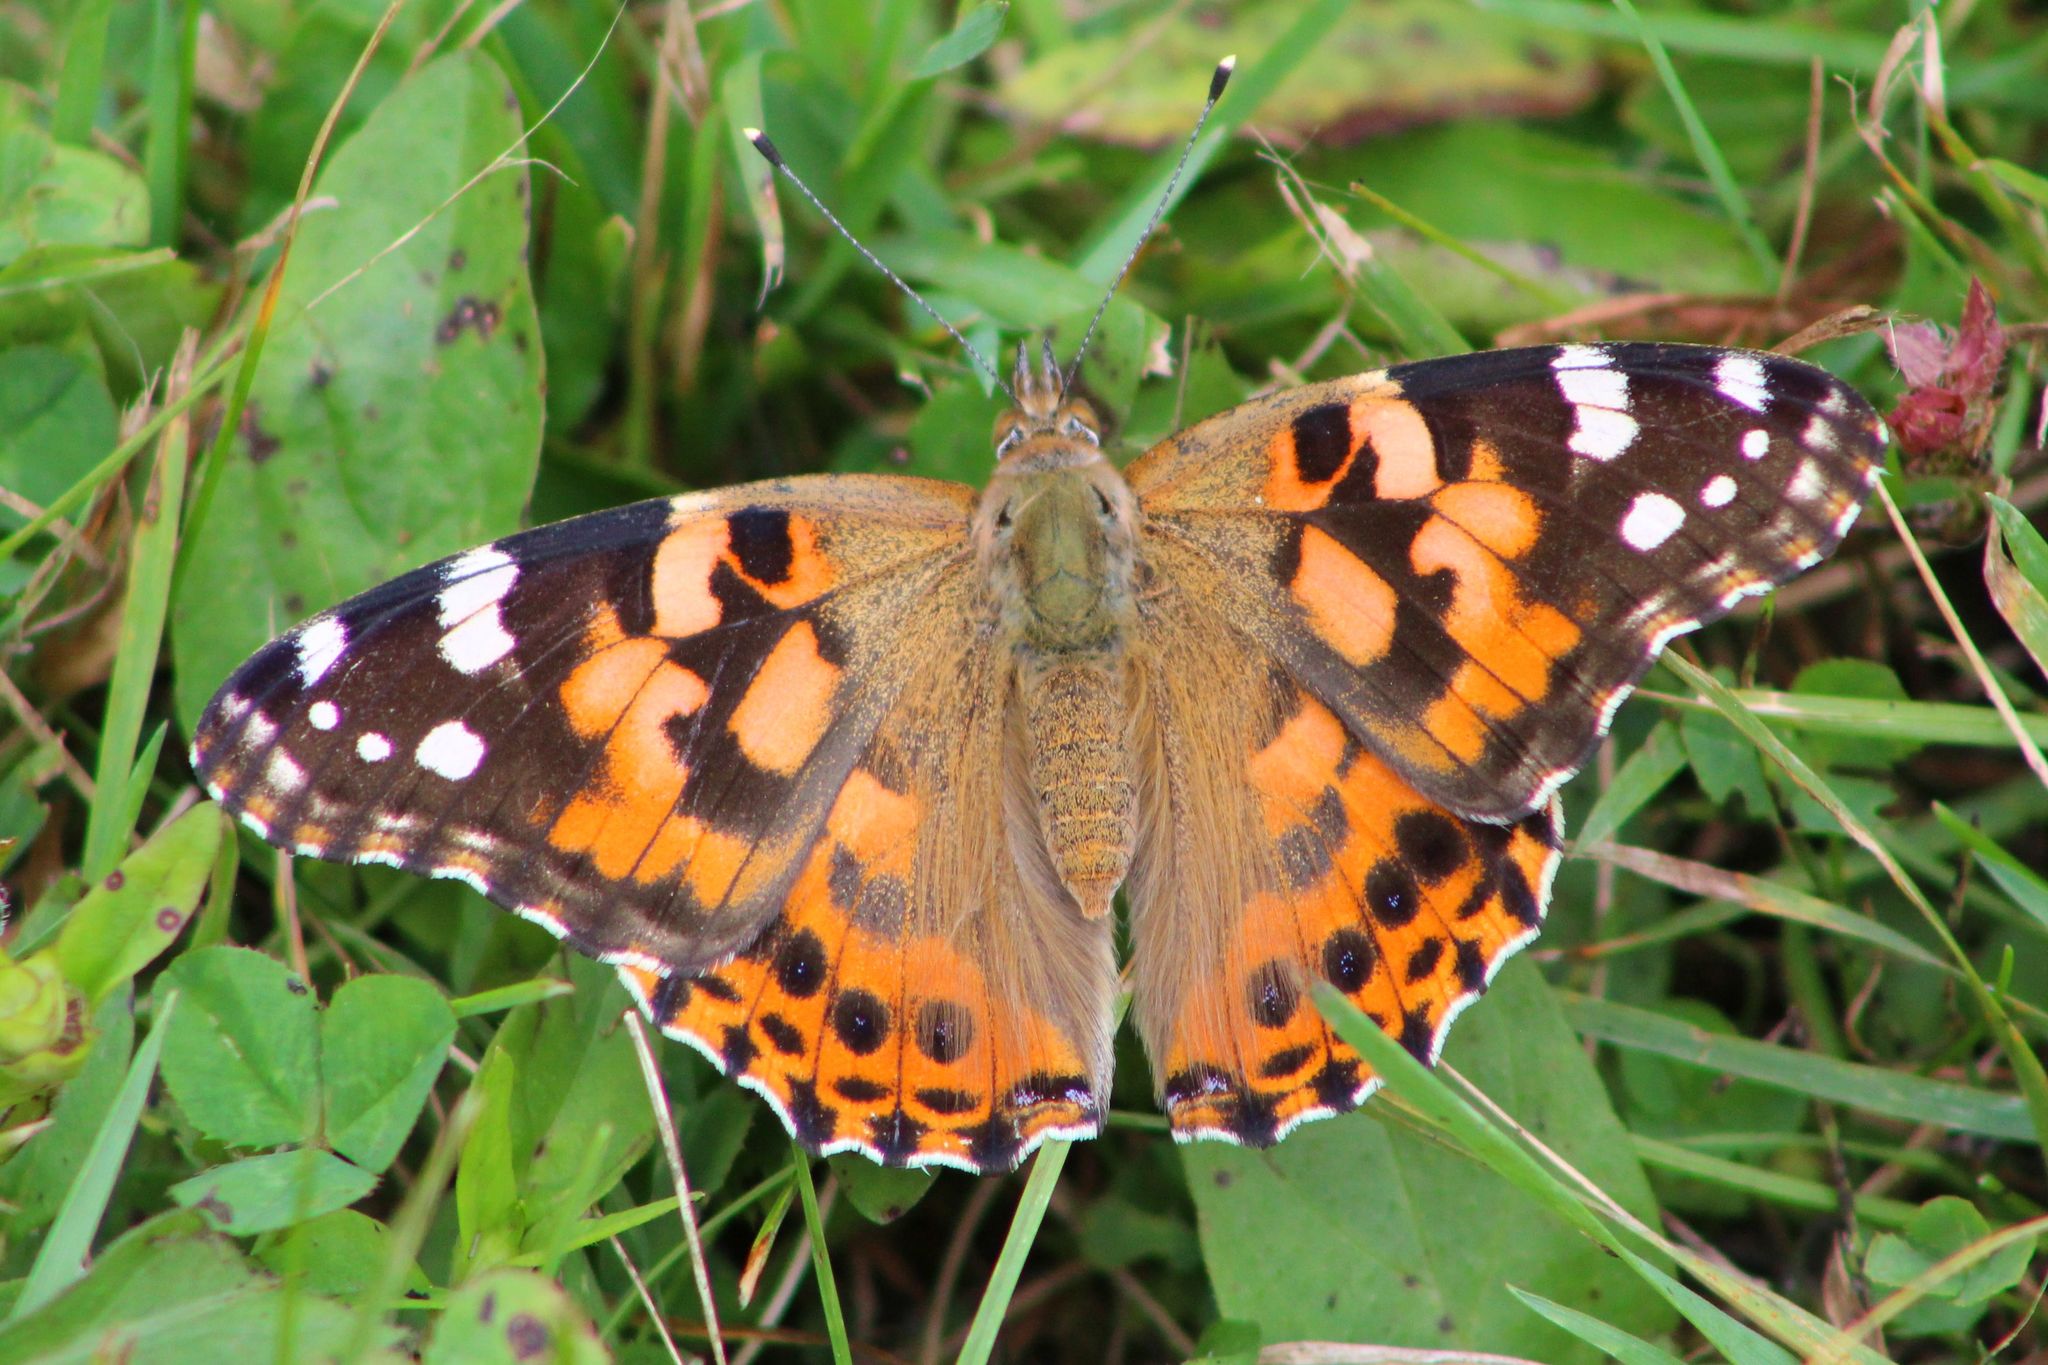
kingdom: Animalia
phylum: Arthropoda
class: Insecta
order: Lepidoptera
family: Nymphalidae
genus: Vanessa
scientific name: Vanessa cardui
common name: Painted lady
